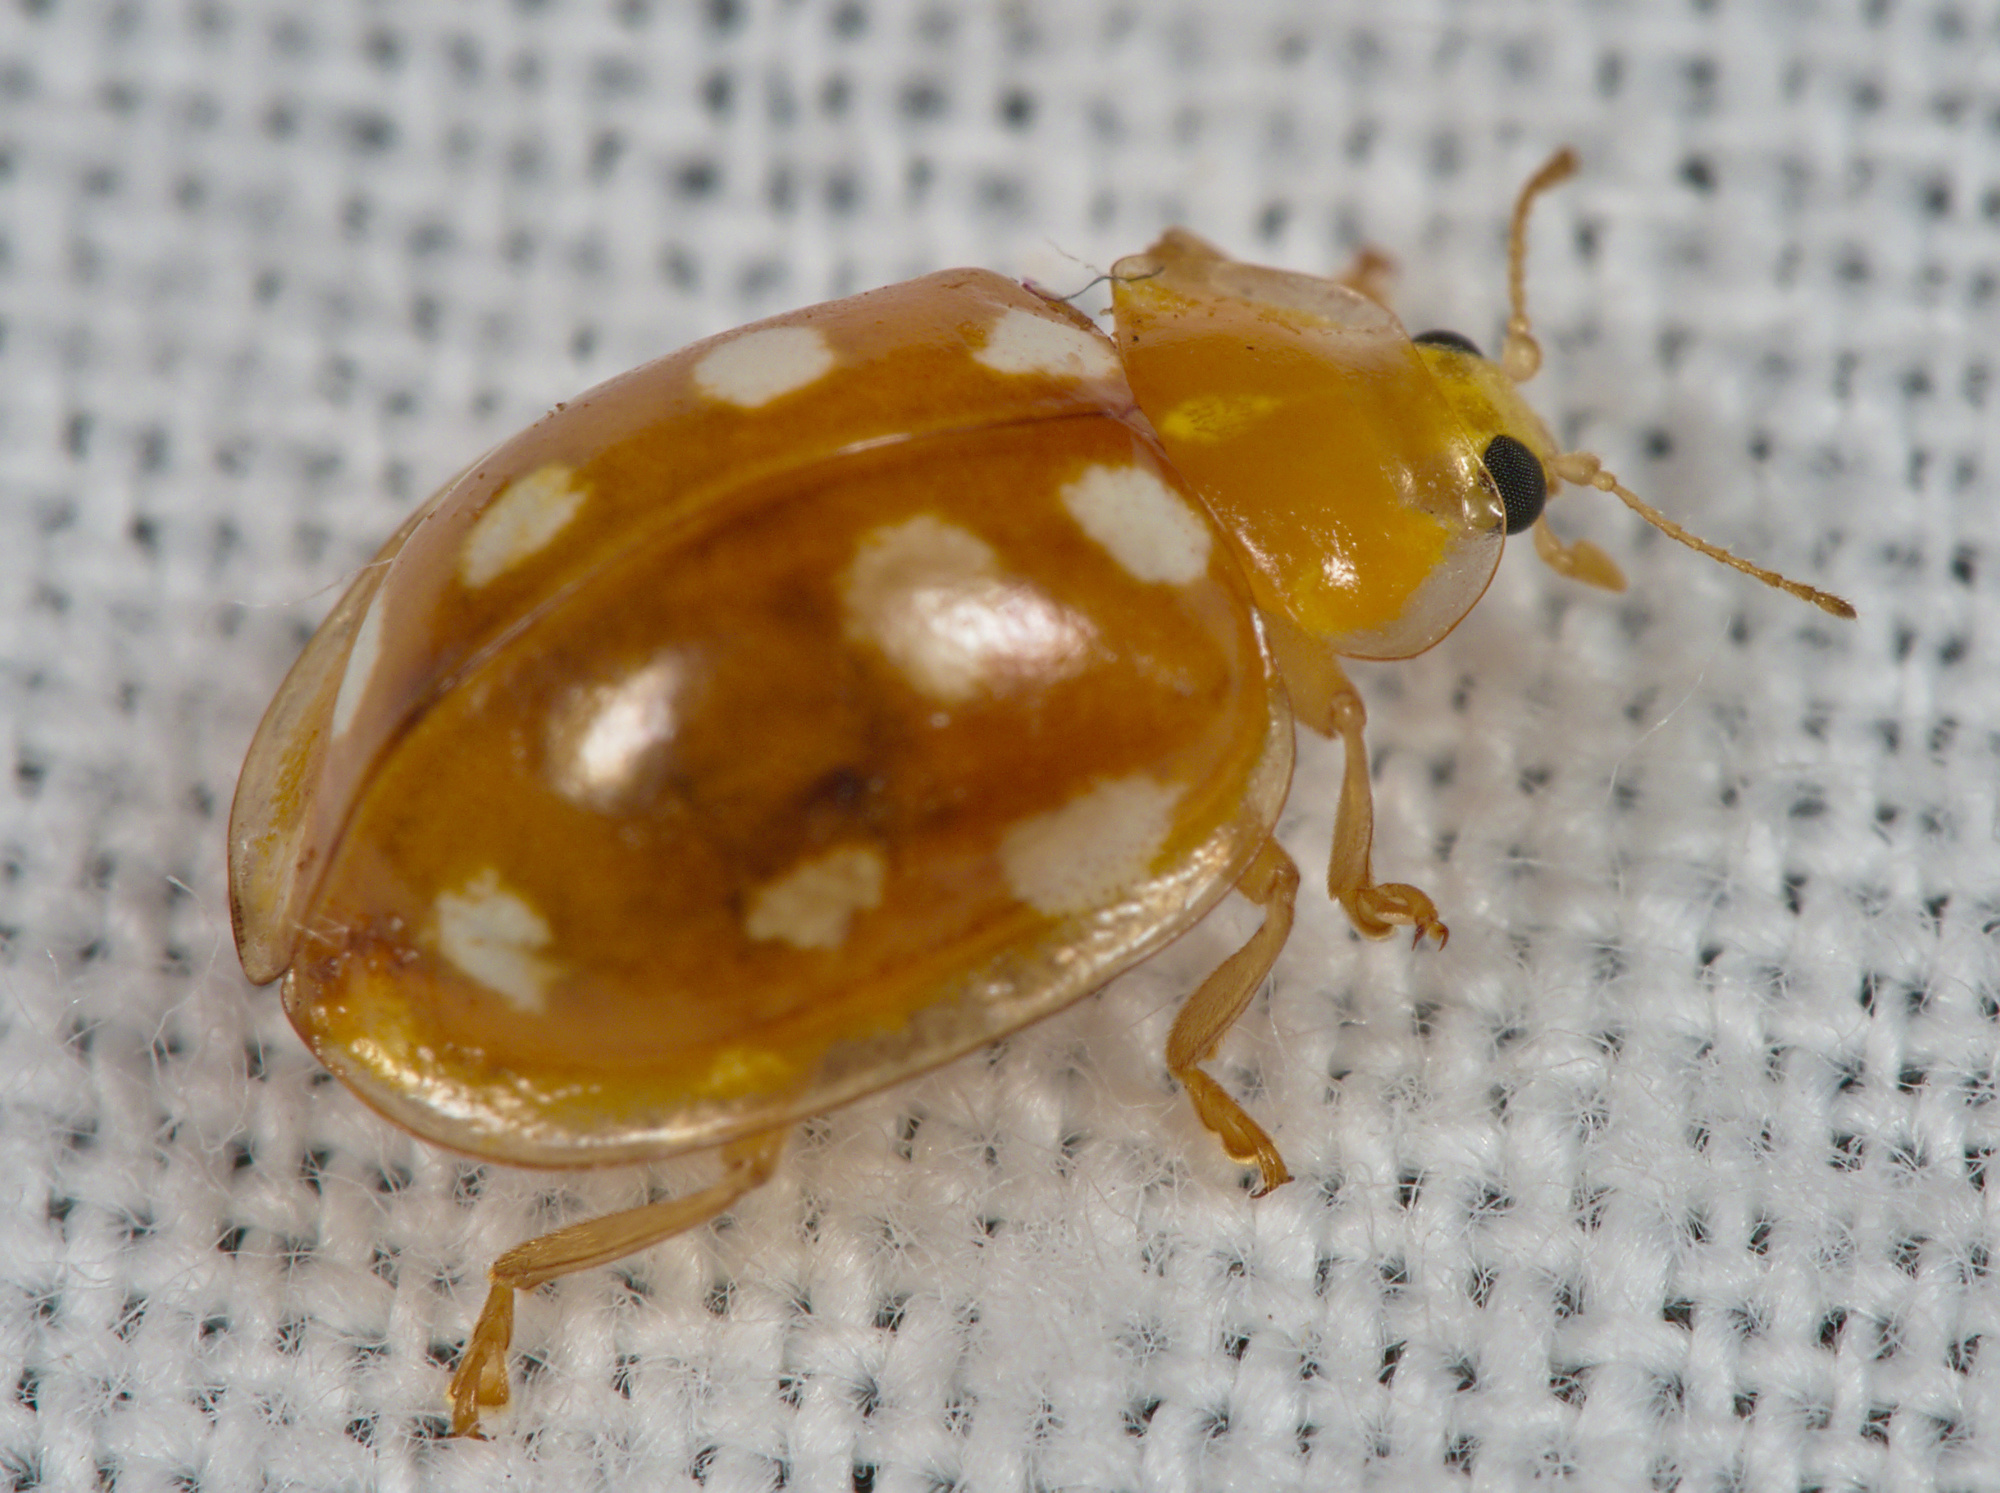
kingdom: Animalia
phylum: Arthropoda
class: Insecta
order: Coleoptera
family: Coccinellidae
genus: Halyzia
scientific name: Halyzia sedecimguttata
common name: Orange ladybird
